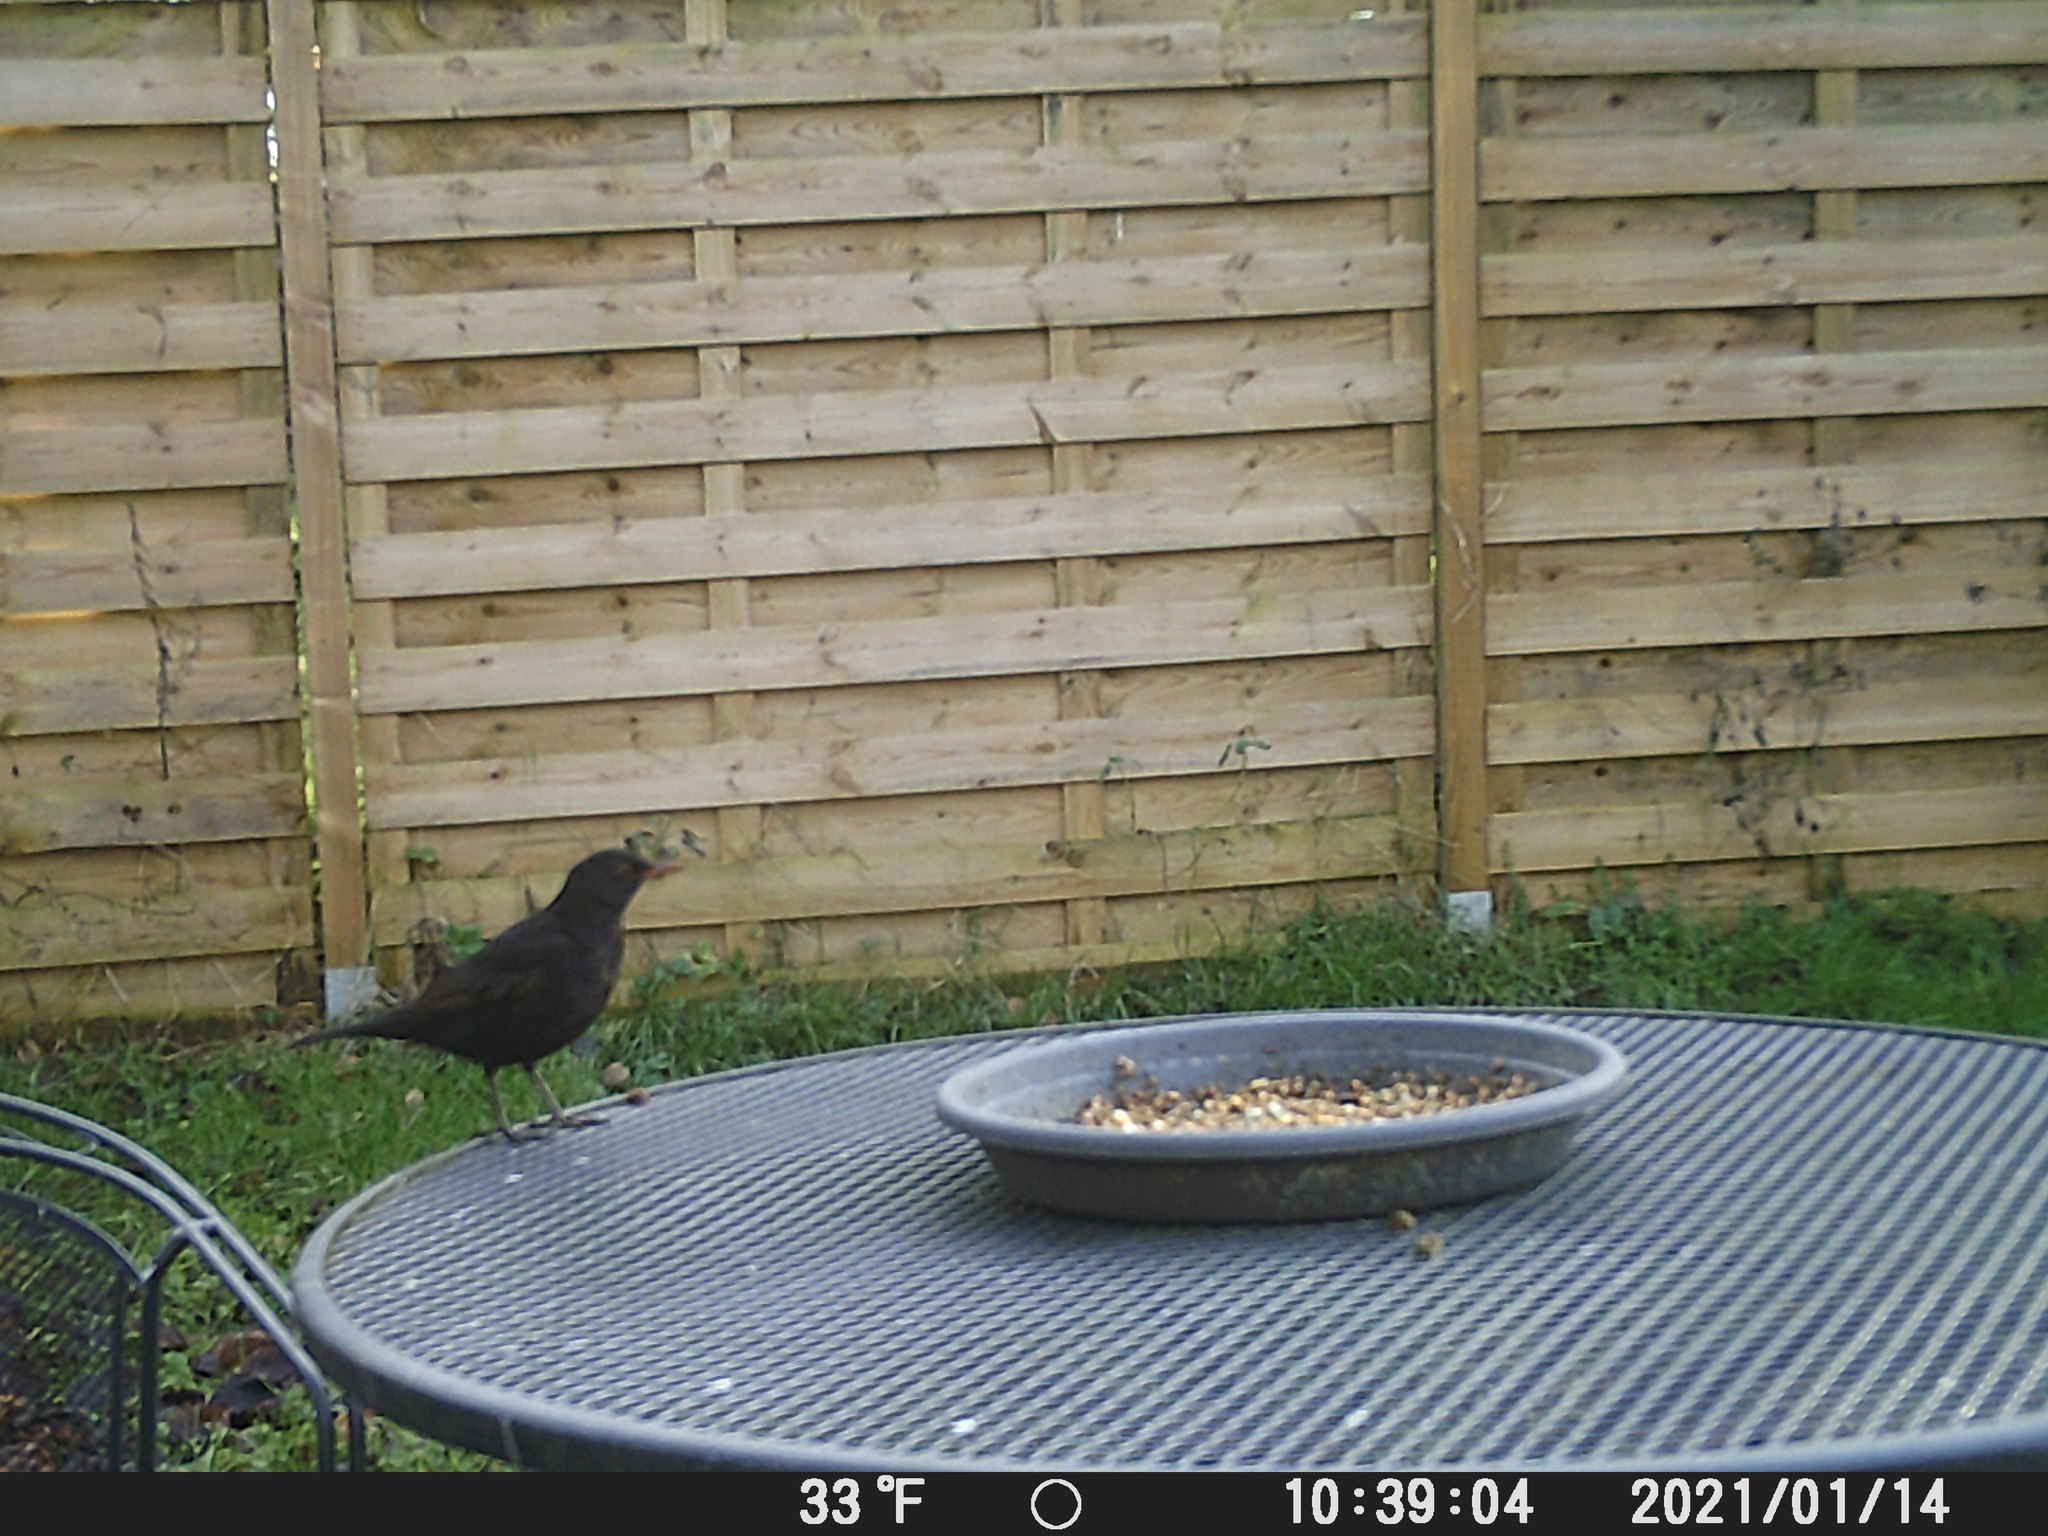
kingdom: Animalia
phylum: Chordata
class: Aves
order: Passeriformes
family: Turdidae
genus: Turdus
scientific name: Turdus merula
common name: Common blackbird
